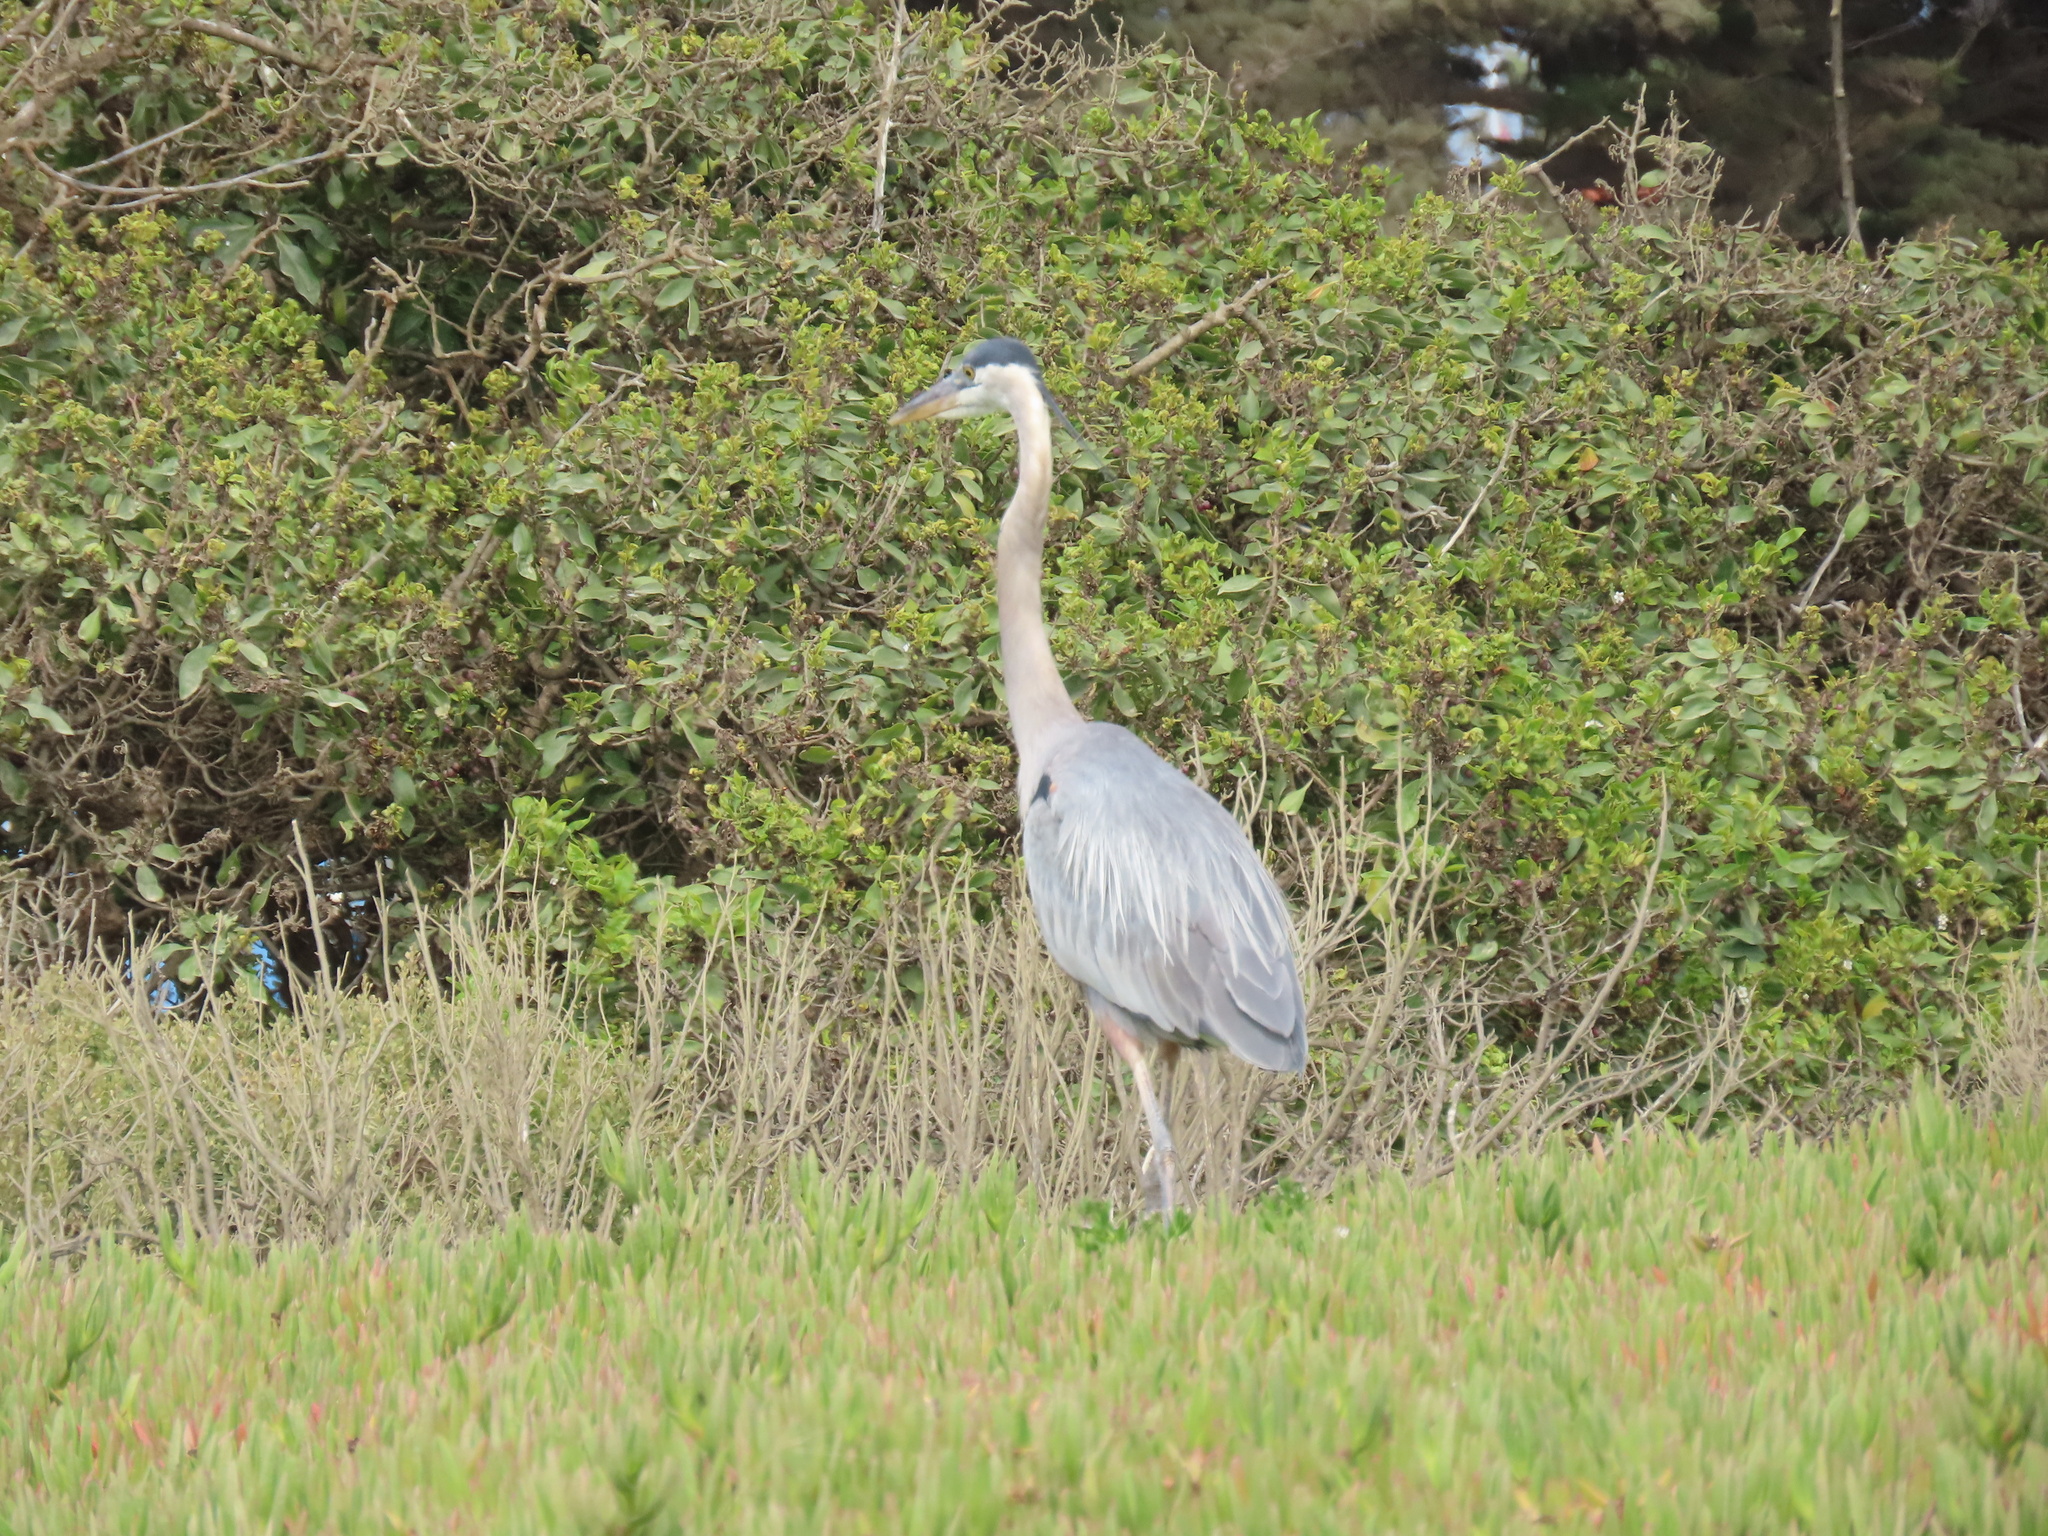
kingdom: Animalia
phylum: Chordata
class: Aves
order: Pelecaniformes
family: Ardeidae
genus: Ardea
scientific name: Ardea herodias
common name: Great blue heron
